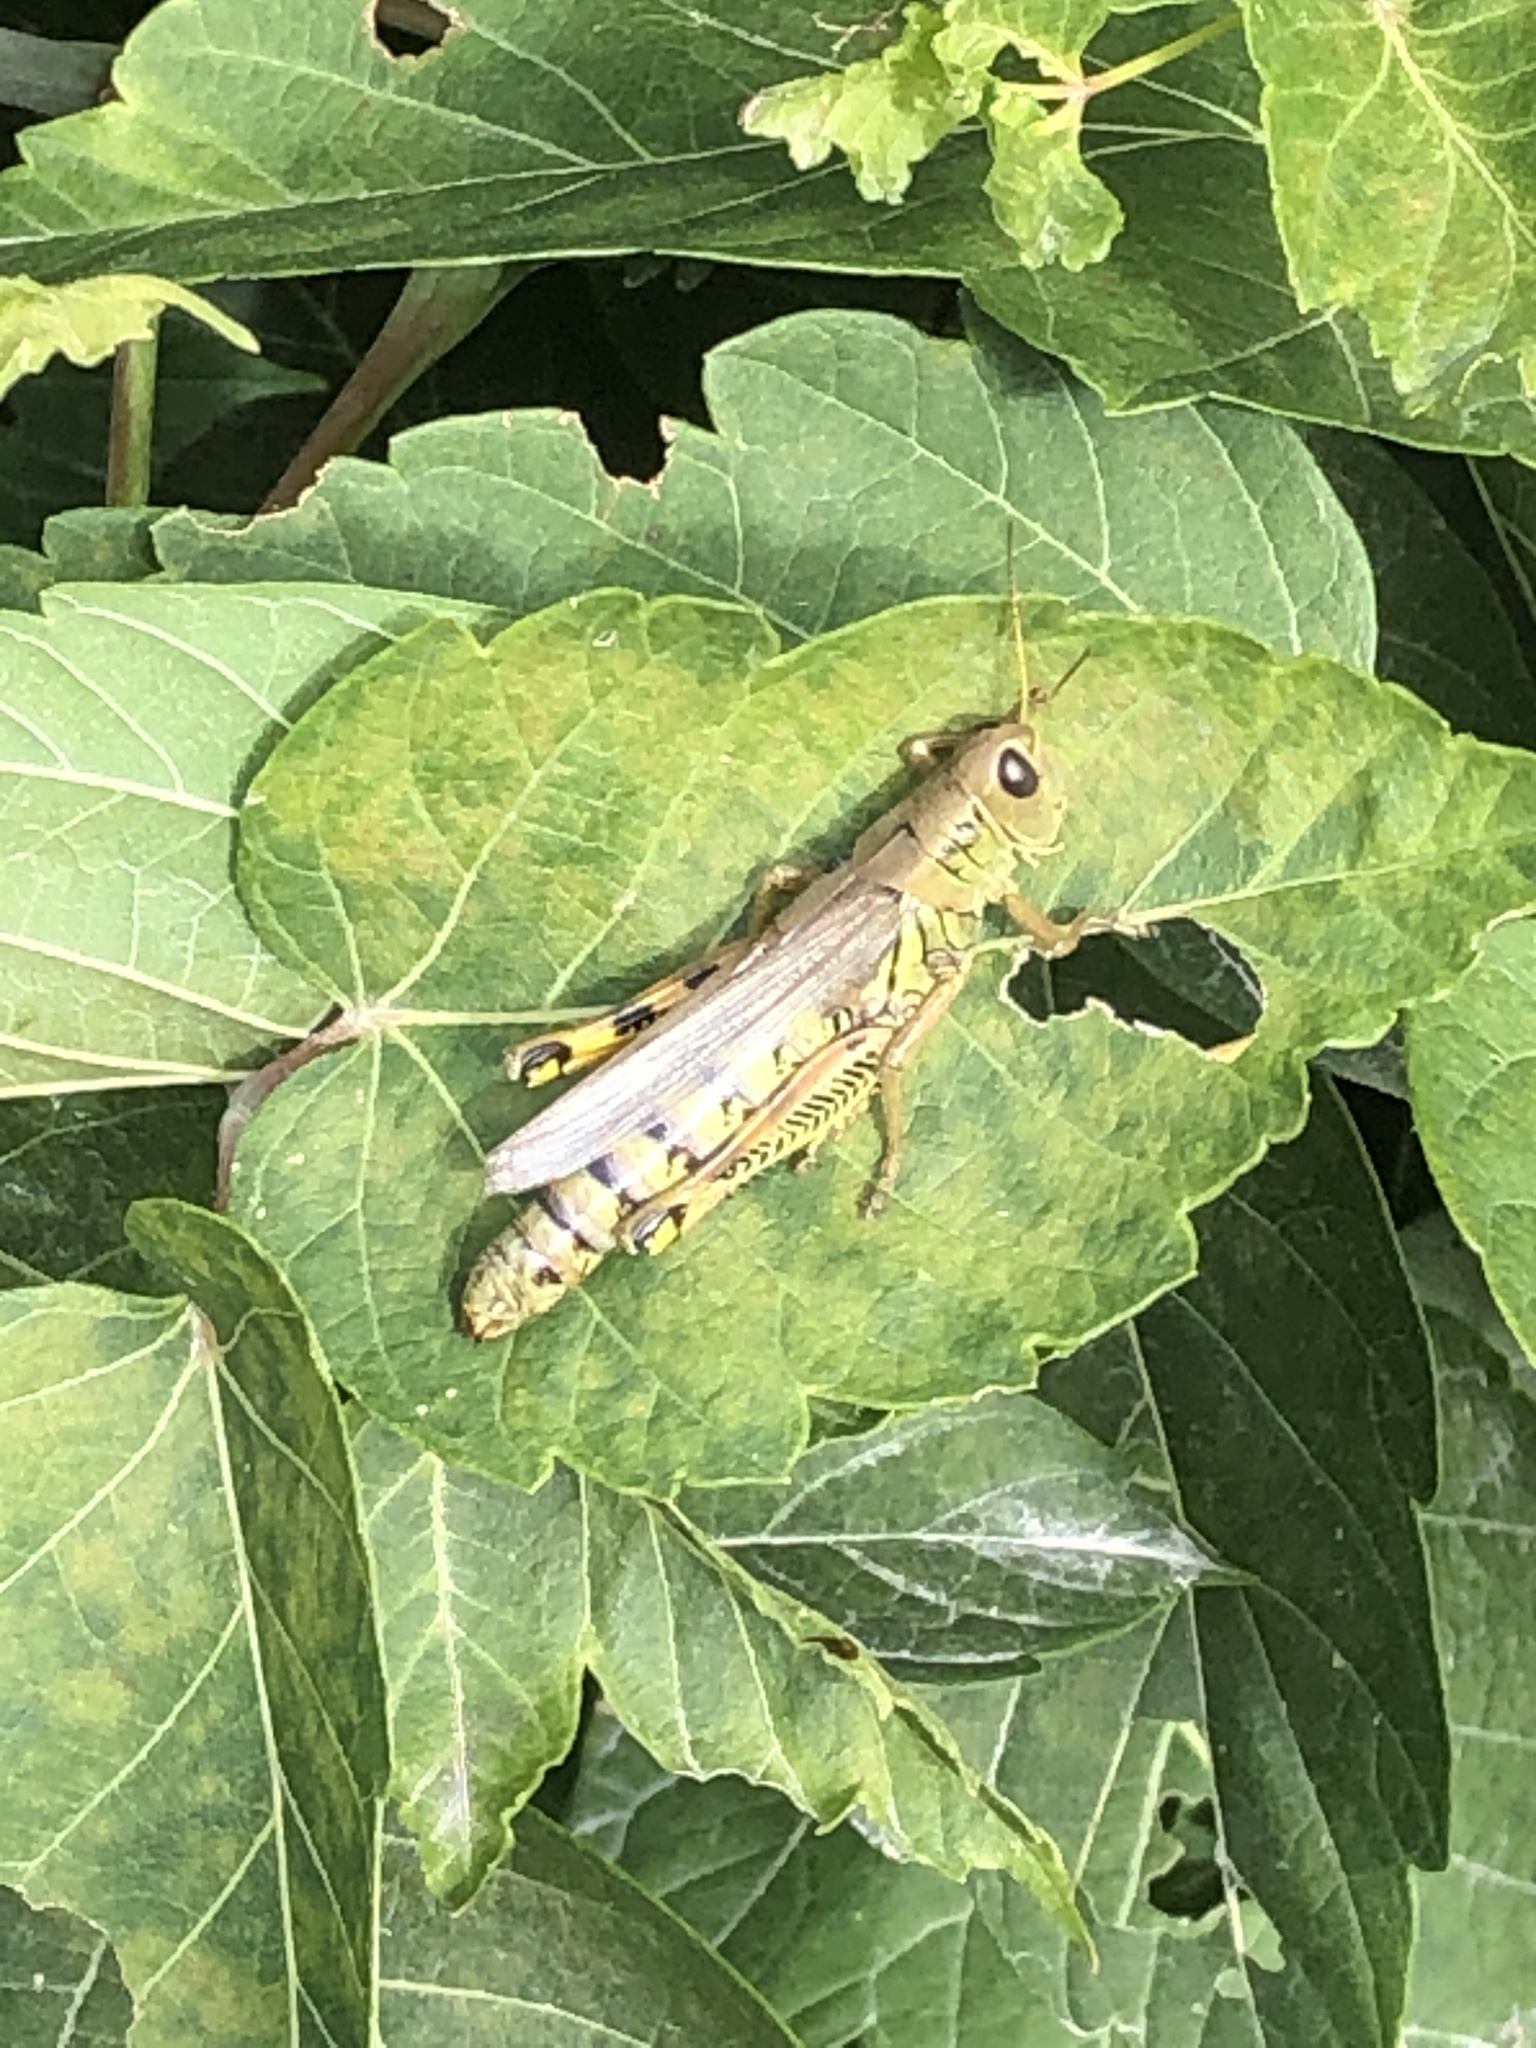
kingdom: Animalia
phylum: Arthropoda
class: Insecta
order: Orthoptera
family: Acrididae
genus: Melanoplus
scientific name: Melanoplus differentialis
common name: Differential grasshopper
